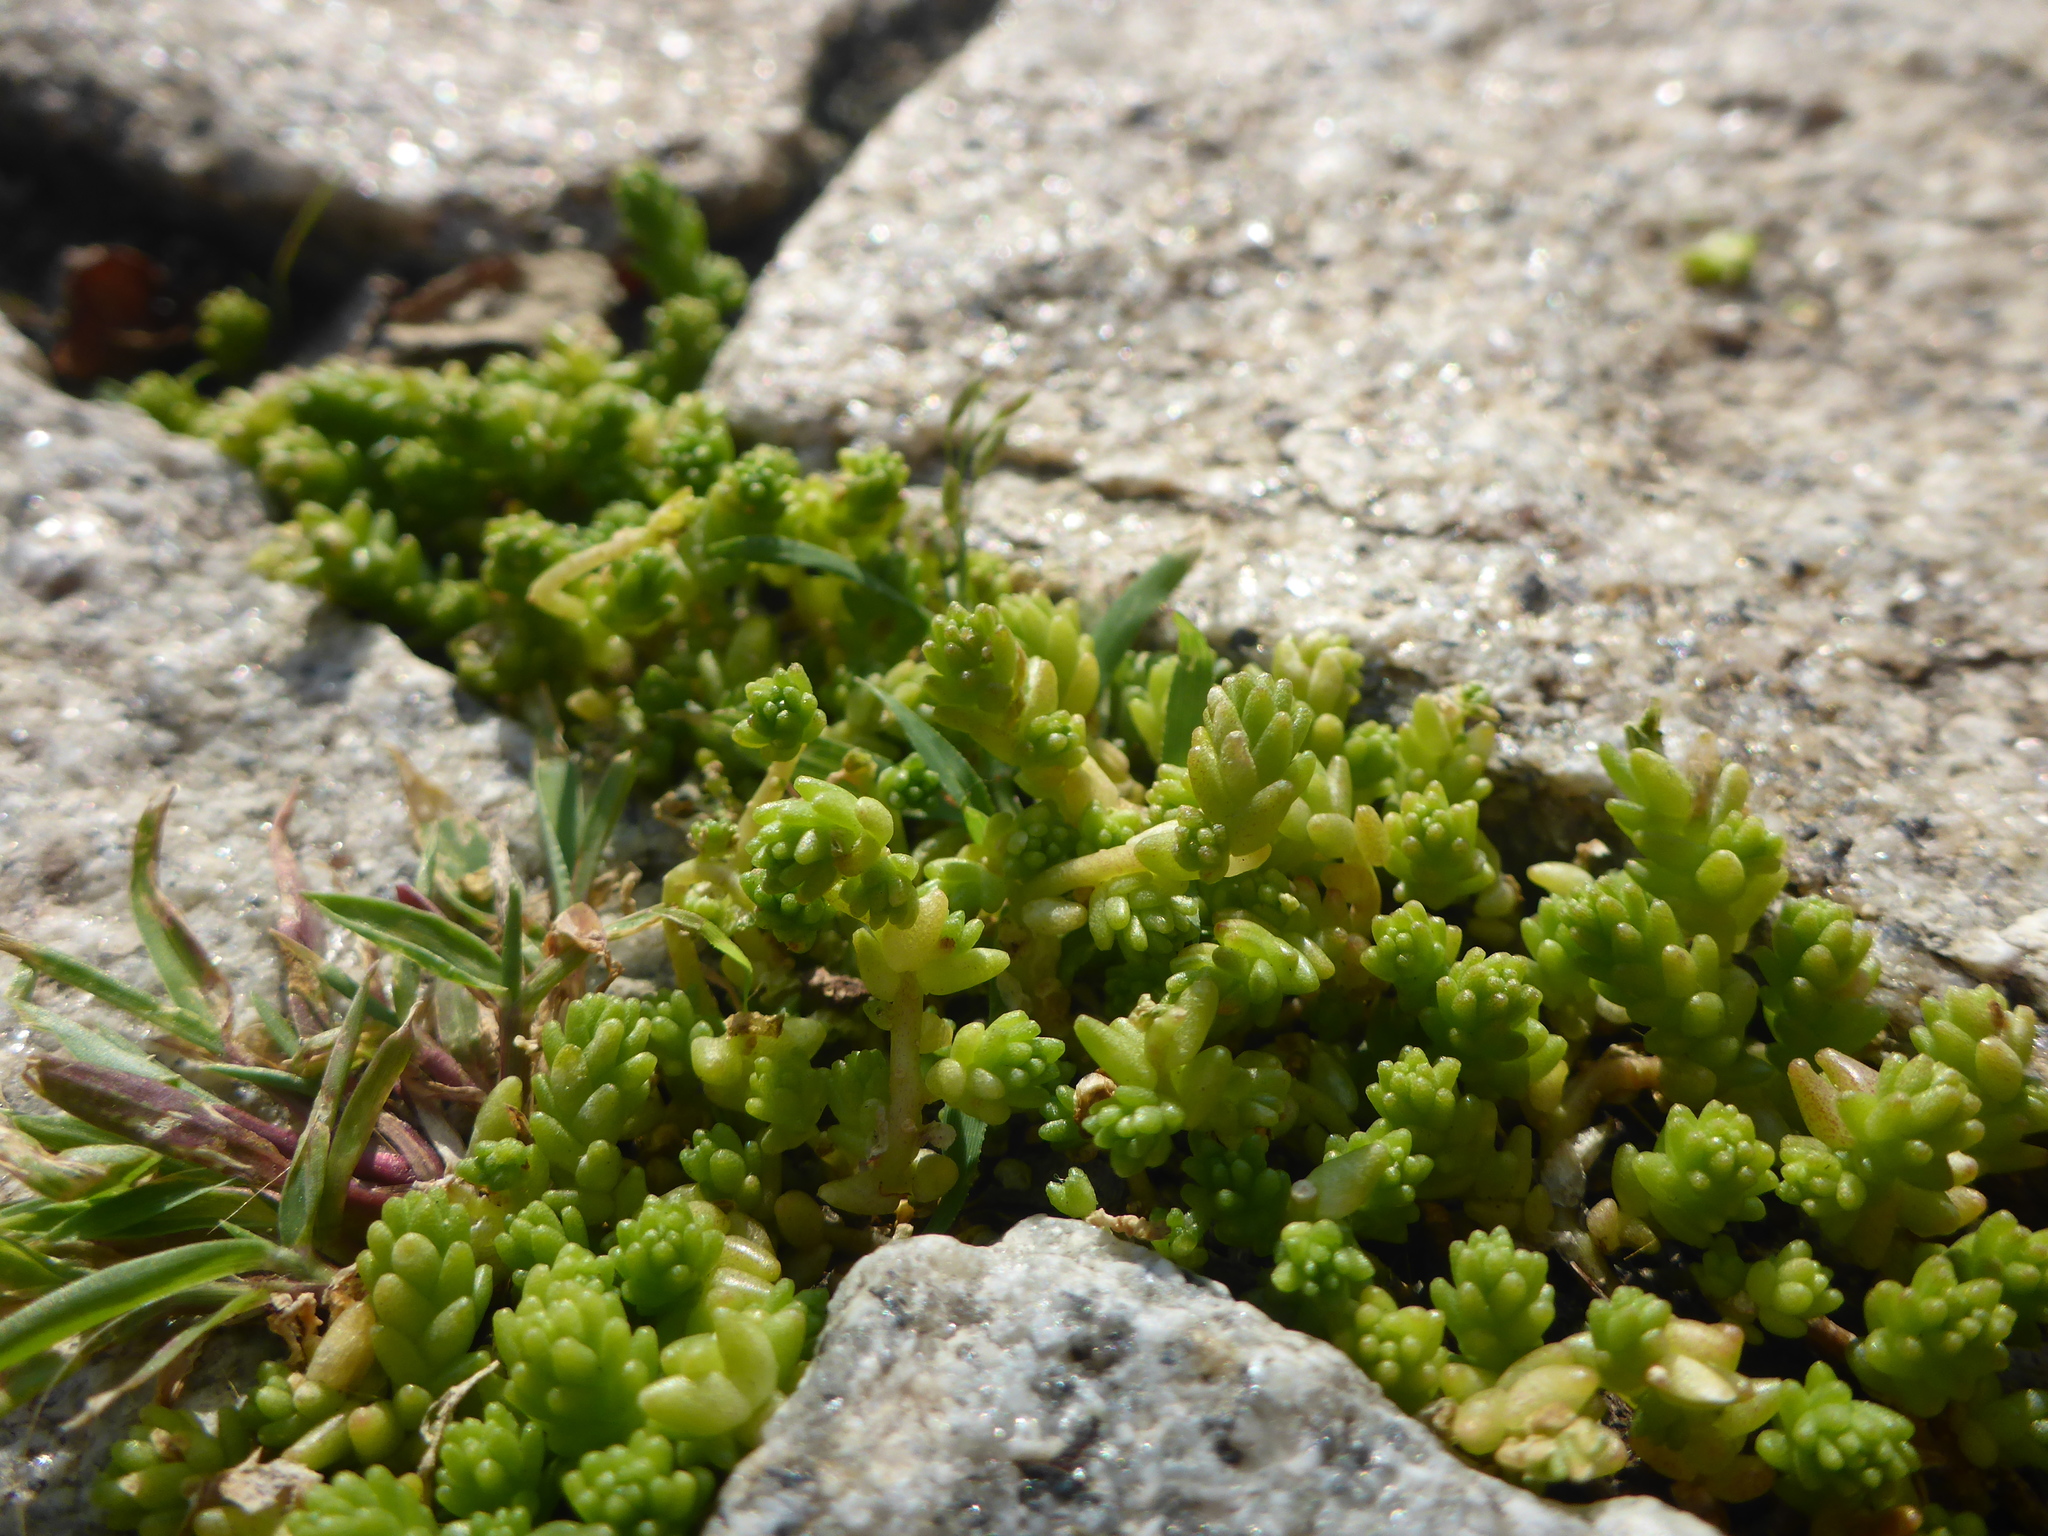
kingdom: Plantae
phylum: Tracheophyta
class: Magnoliopsida
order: Saxifragales
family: Crassulaceae
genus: Sedum
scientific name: Sedum acre
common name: Biting stonecrop
